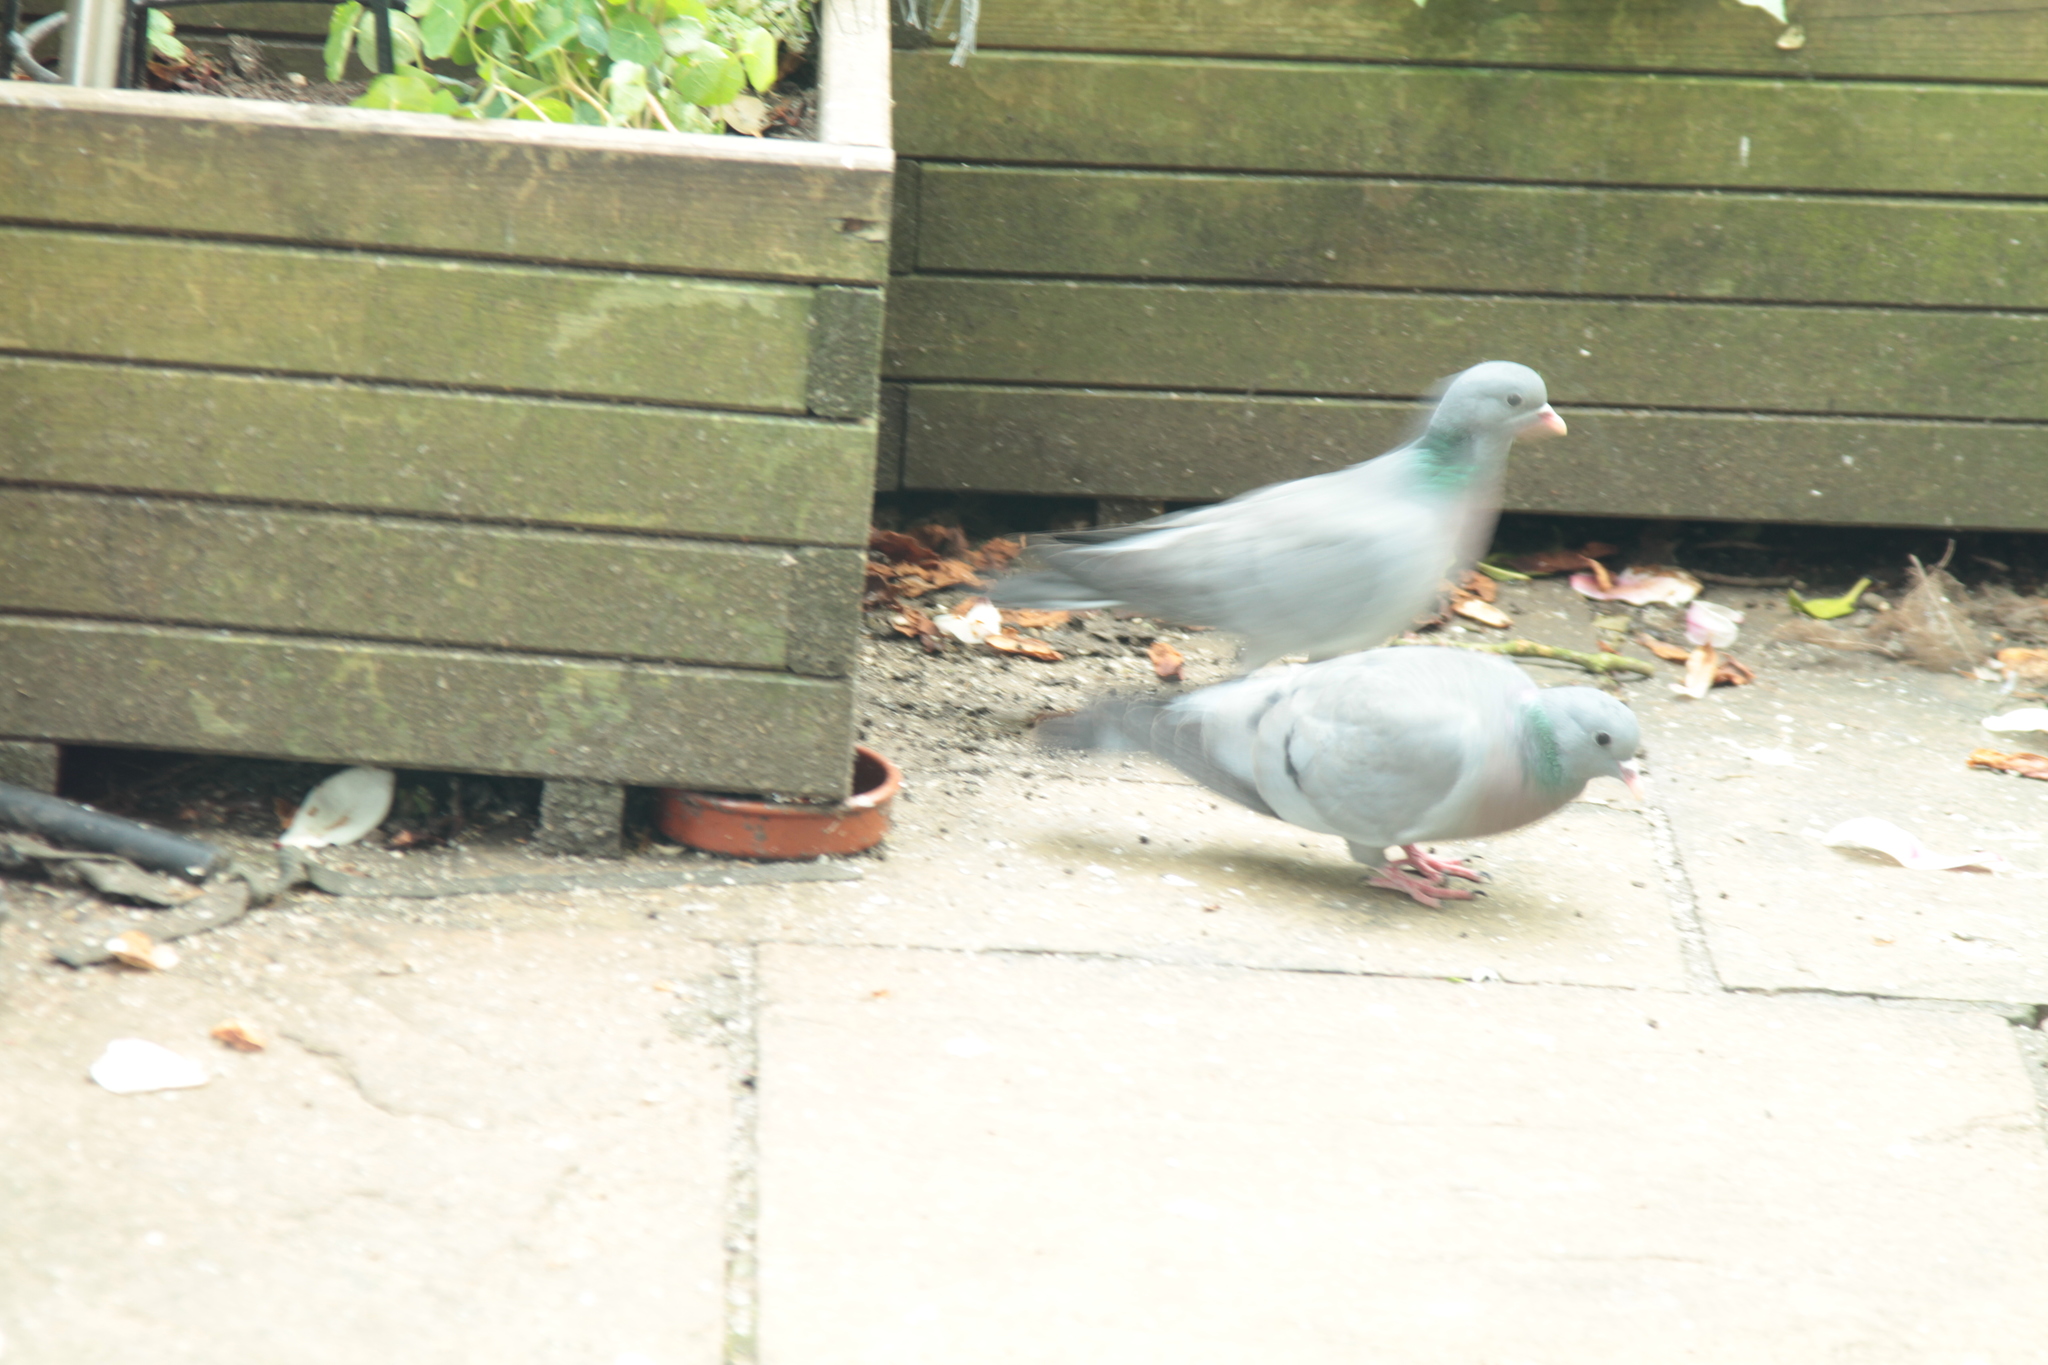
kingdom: Animalia
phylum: Chordata
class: Aves
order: Columbiformes
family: Columbidae
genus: Columba
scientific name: Columba oenas
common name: Stock dove
